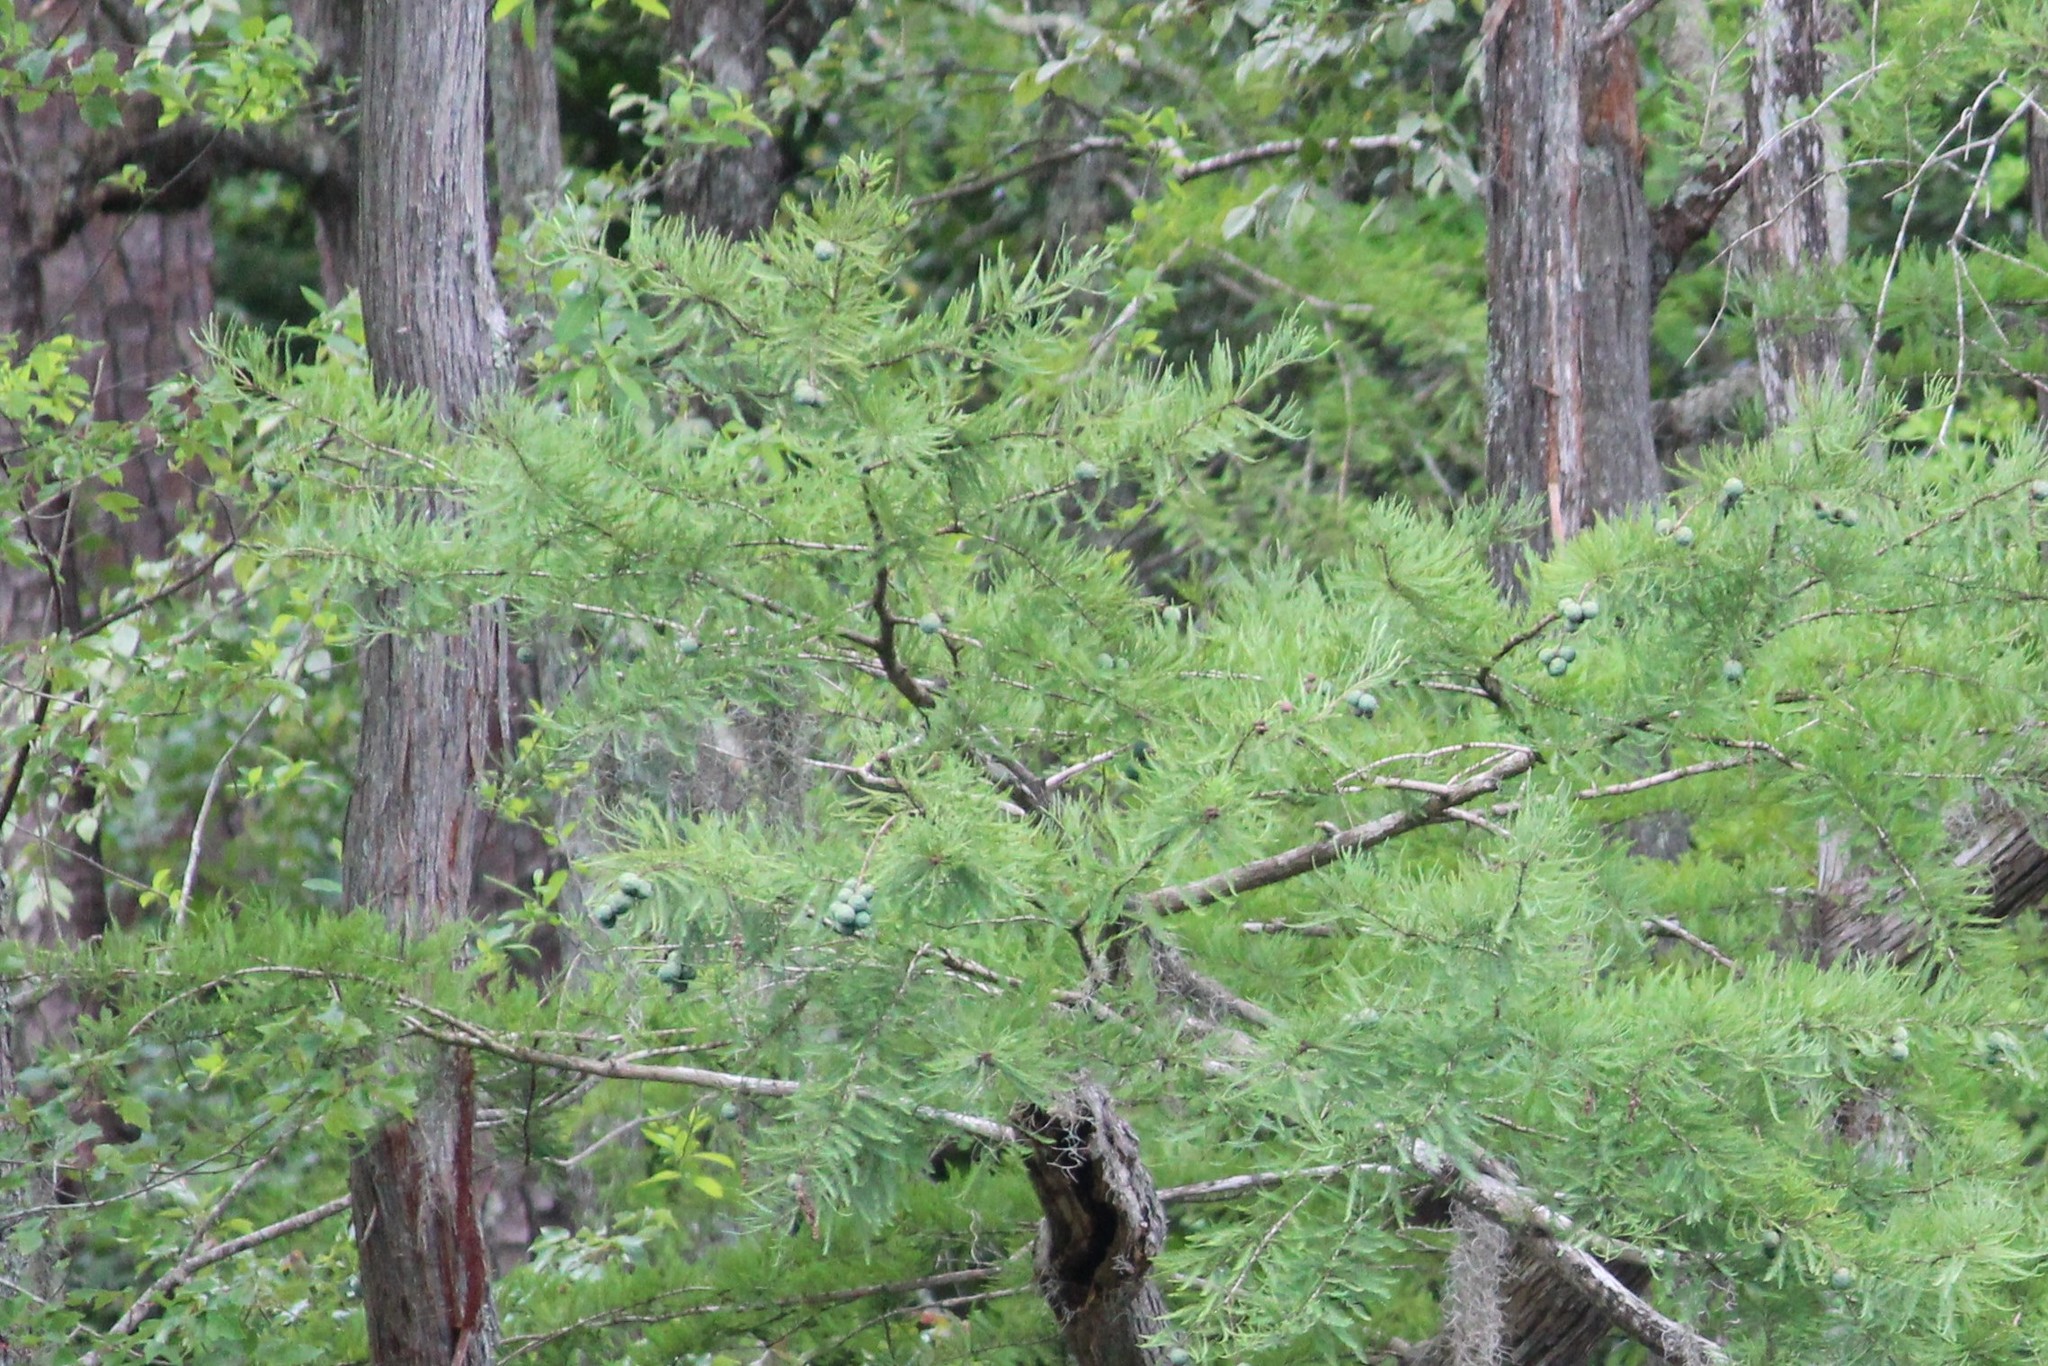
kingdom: Plantae
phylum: Tracheophyta
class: Pinopsida
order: Pinales
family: Cupressaceae
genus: Taxodium
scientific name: Taxodium distichum
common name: Bald cypress
